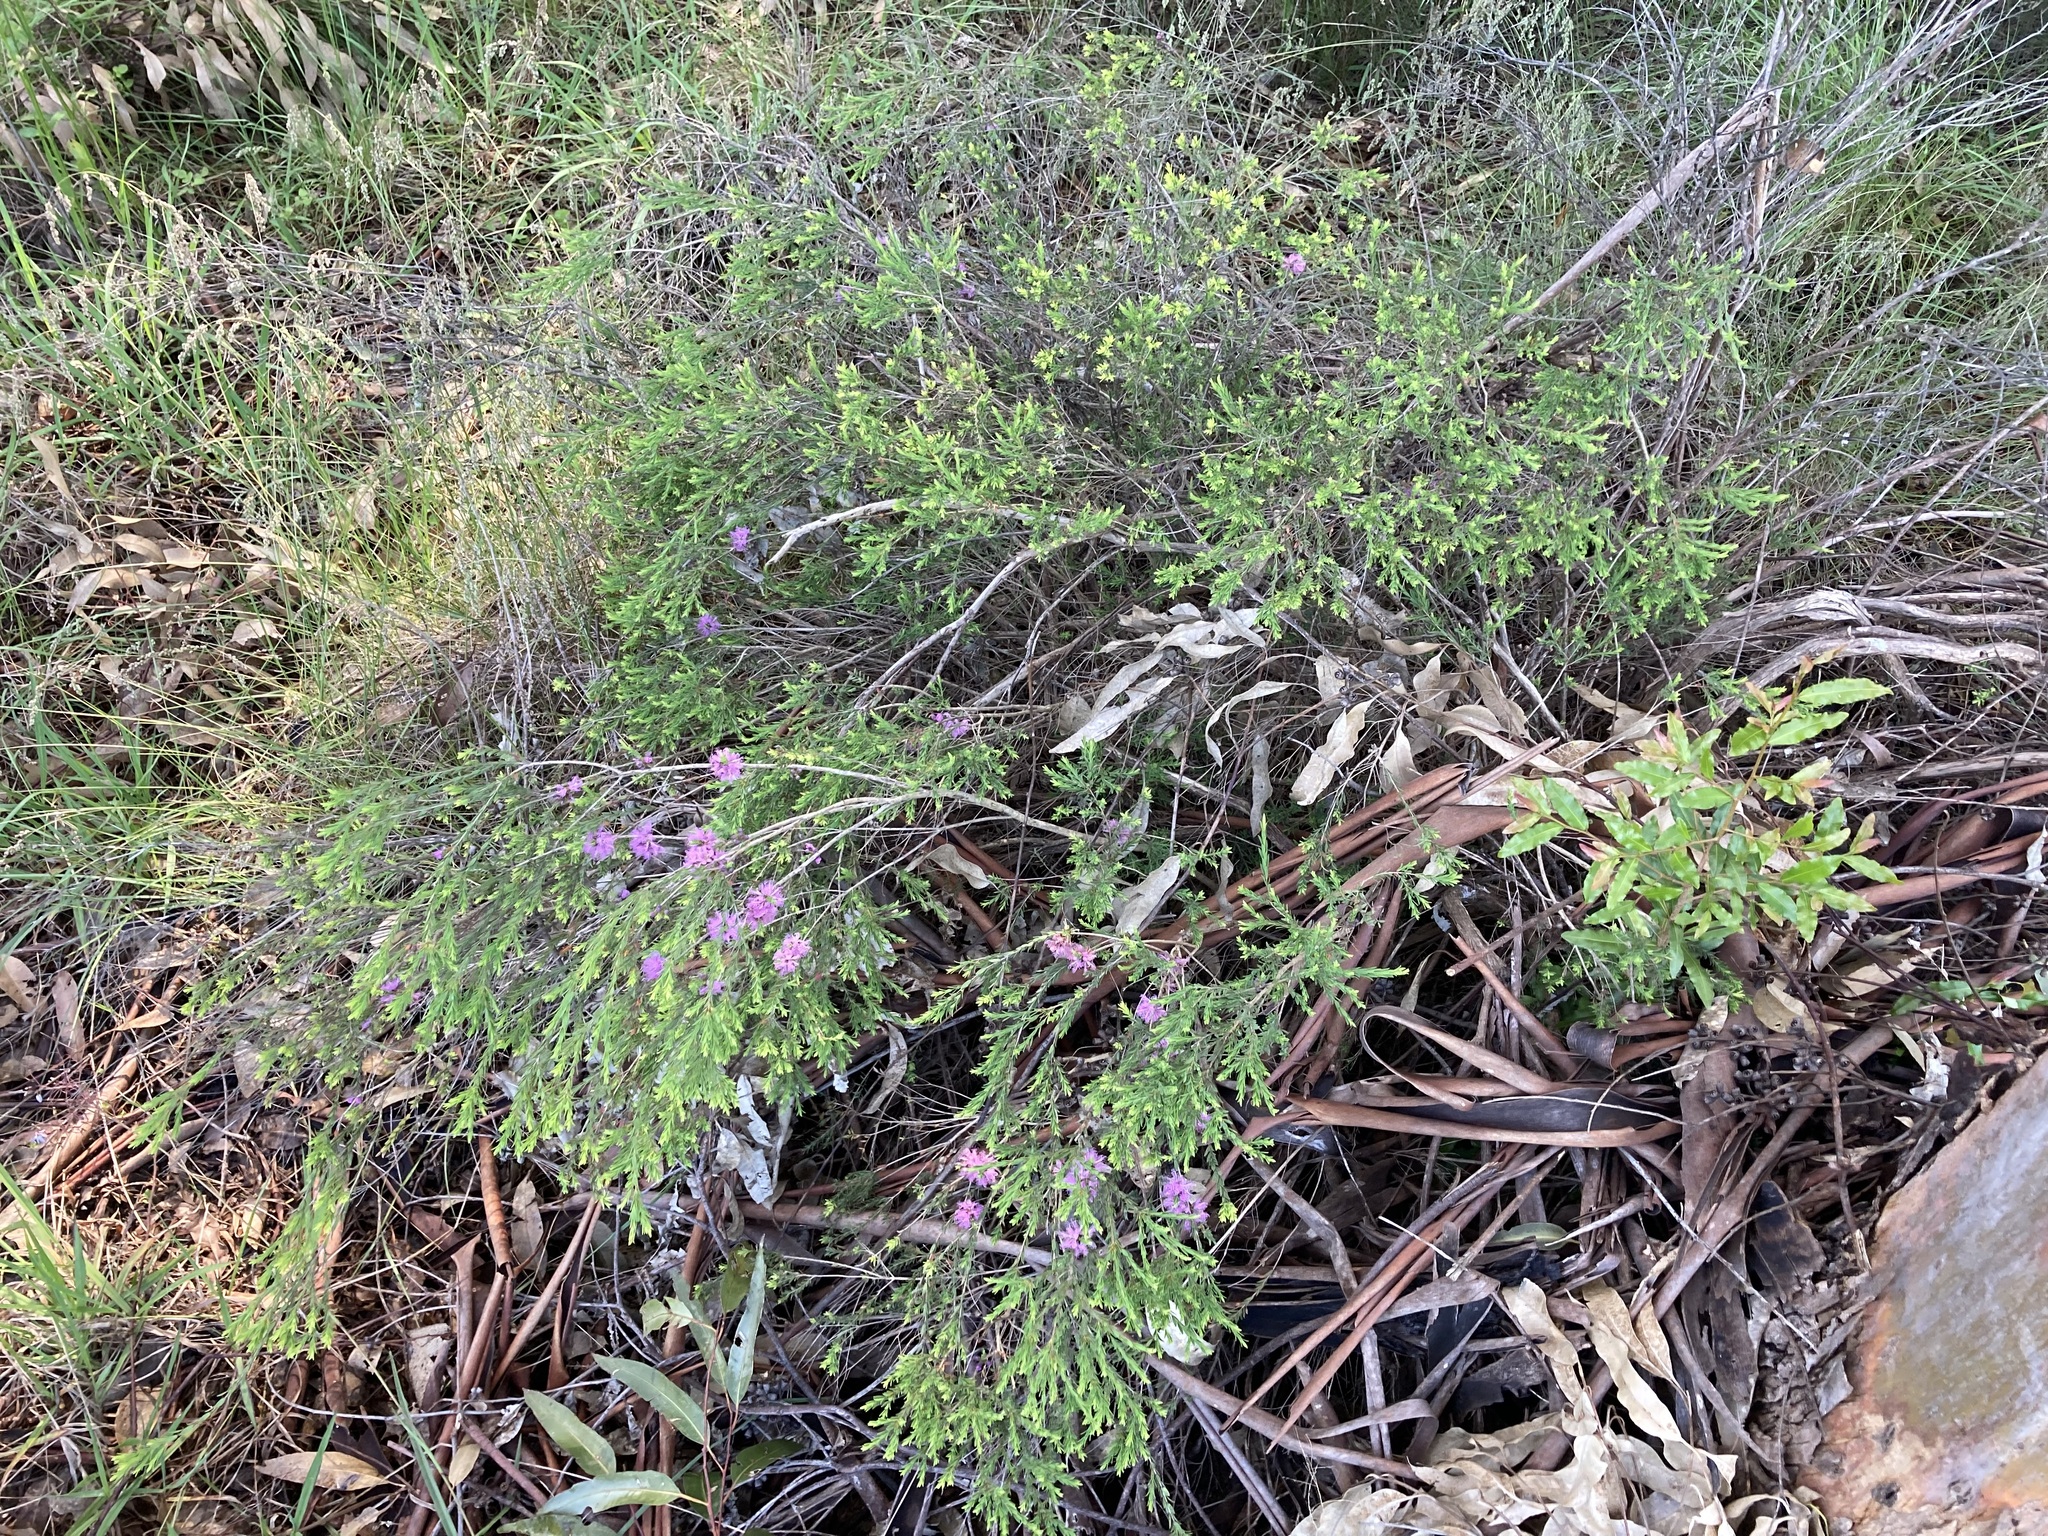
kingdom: Plantae
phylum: Tracheophyta
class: Magnoliopsida
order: Myrtales
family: Myrtaceae
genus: Melaleuca
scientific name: Melaleuca thymifolia
